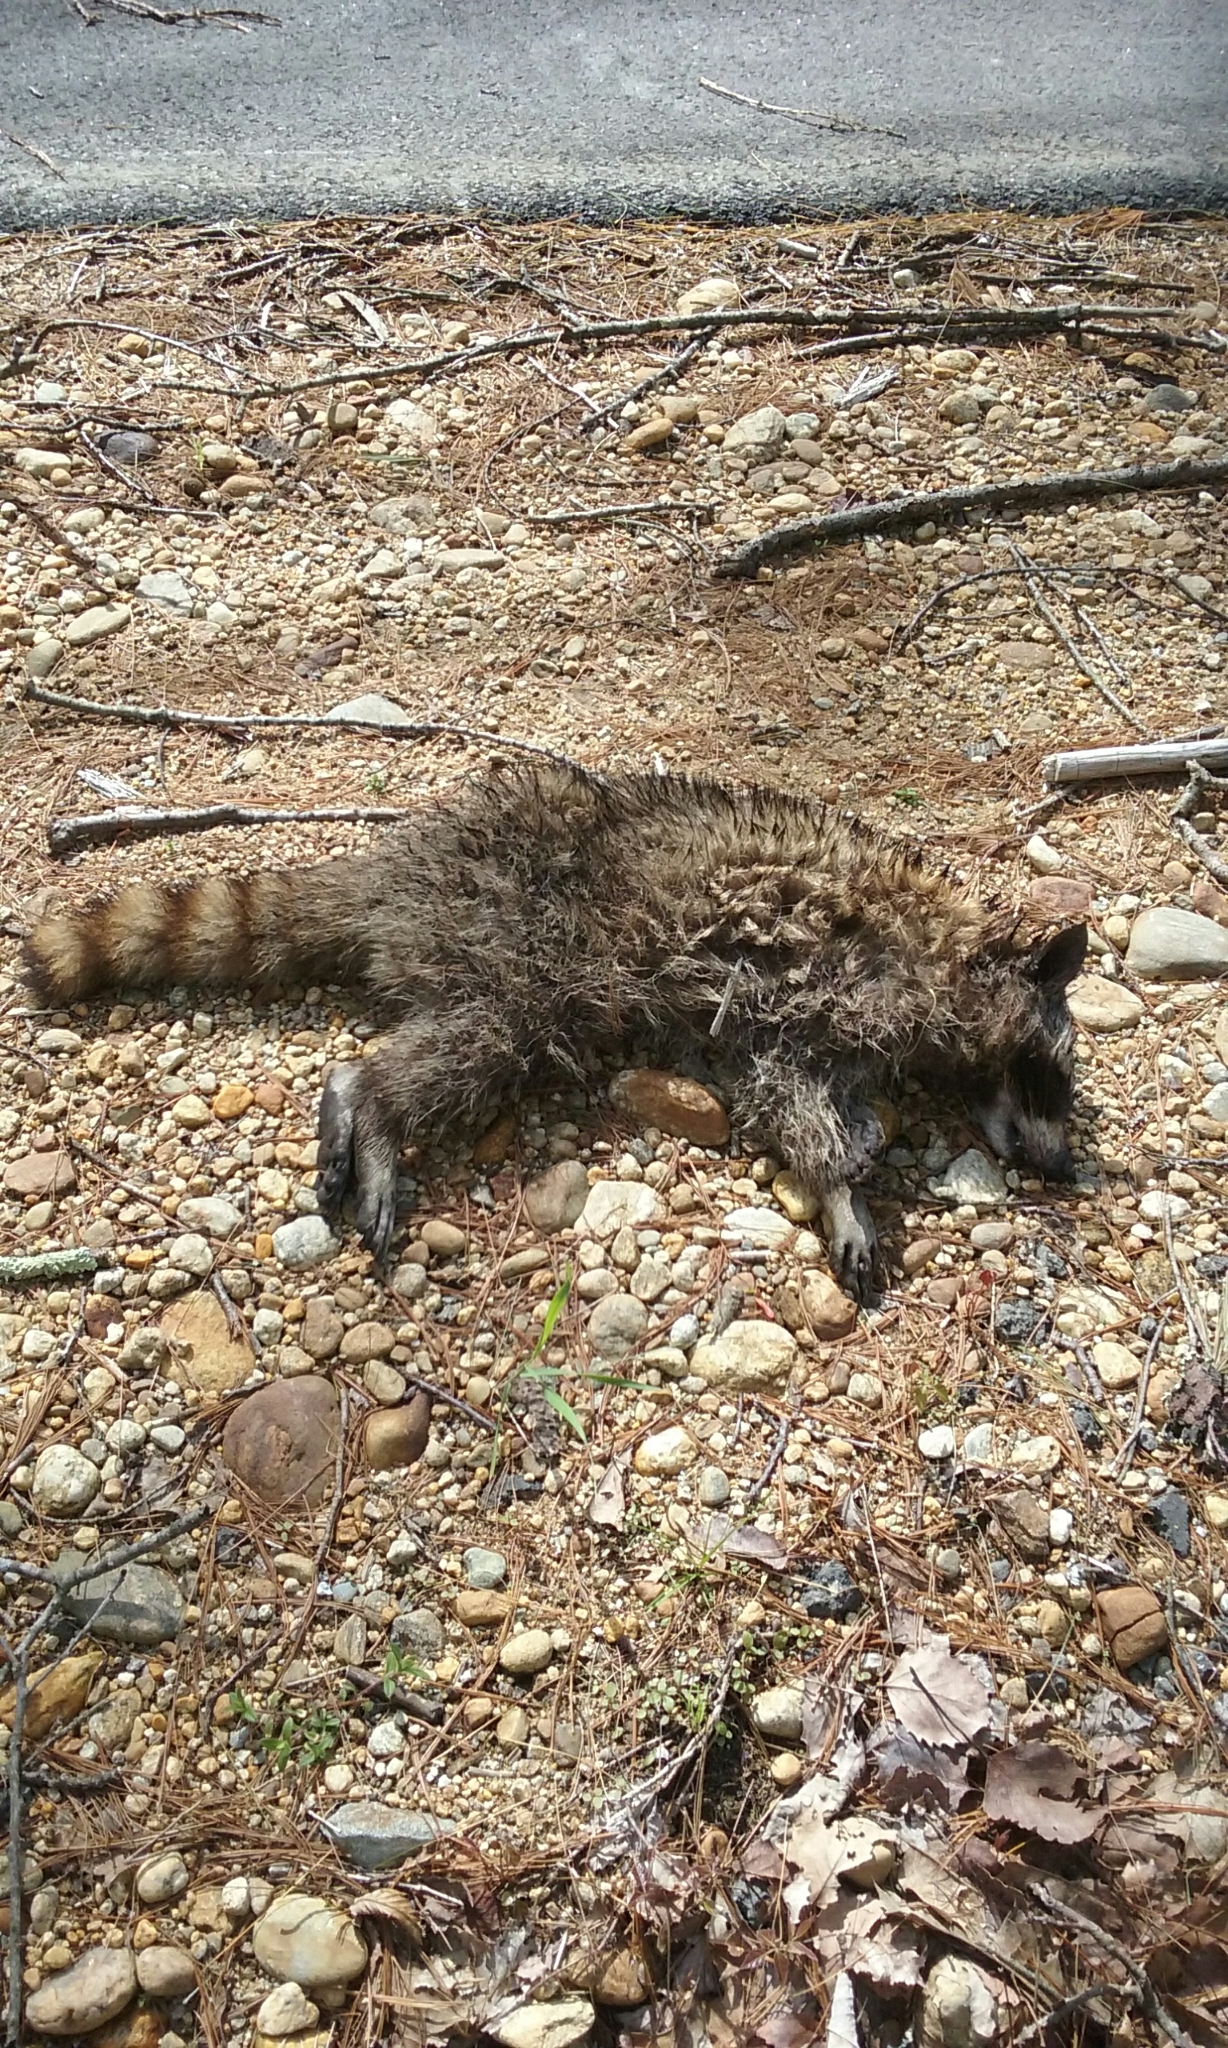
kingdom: Animalia
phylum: Chordata
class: Mammalia
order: Carnivora
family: Procyonidae
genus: Procyon
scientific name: Procyon lotor
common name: Raccoon
